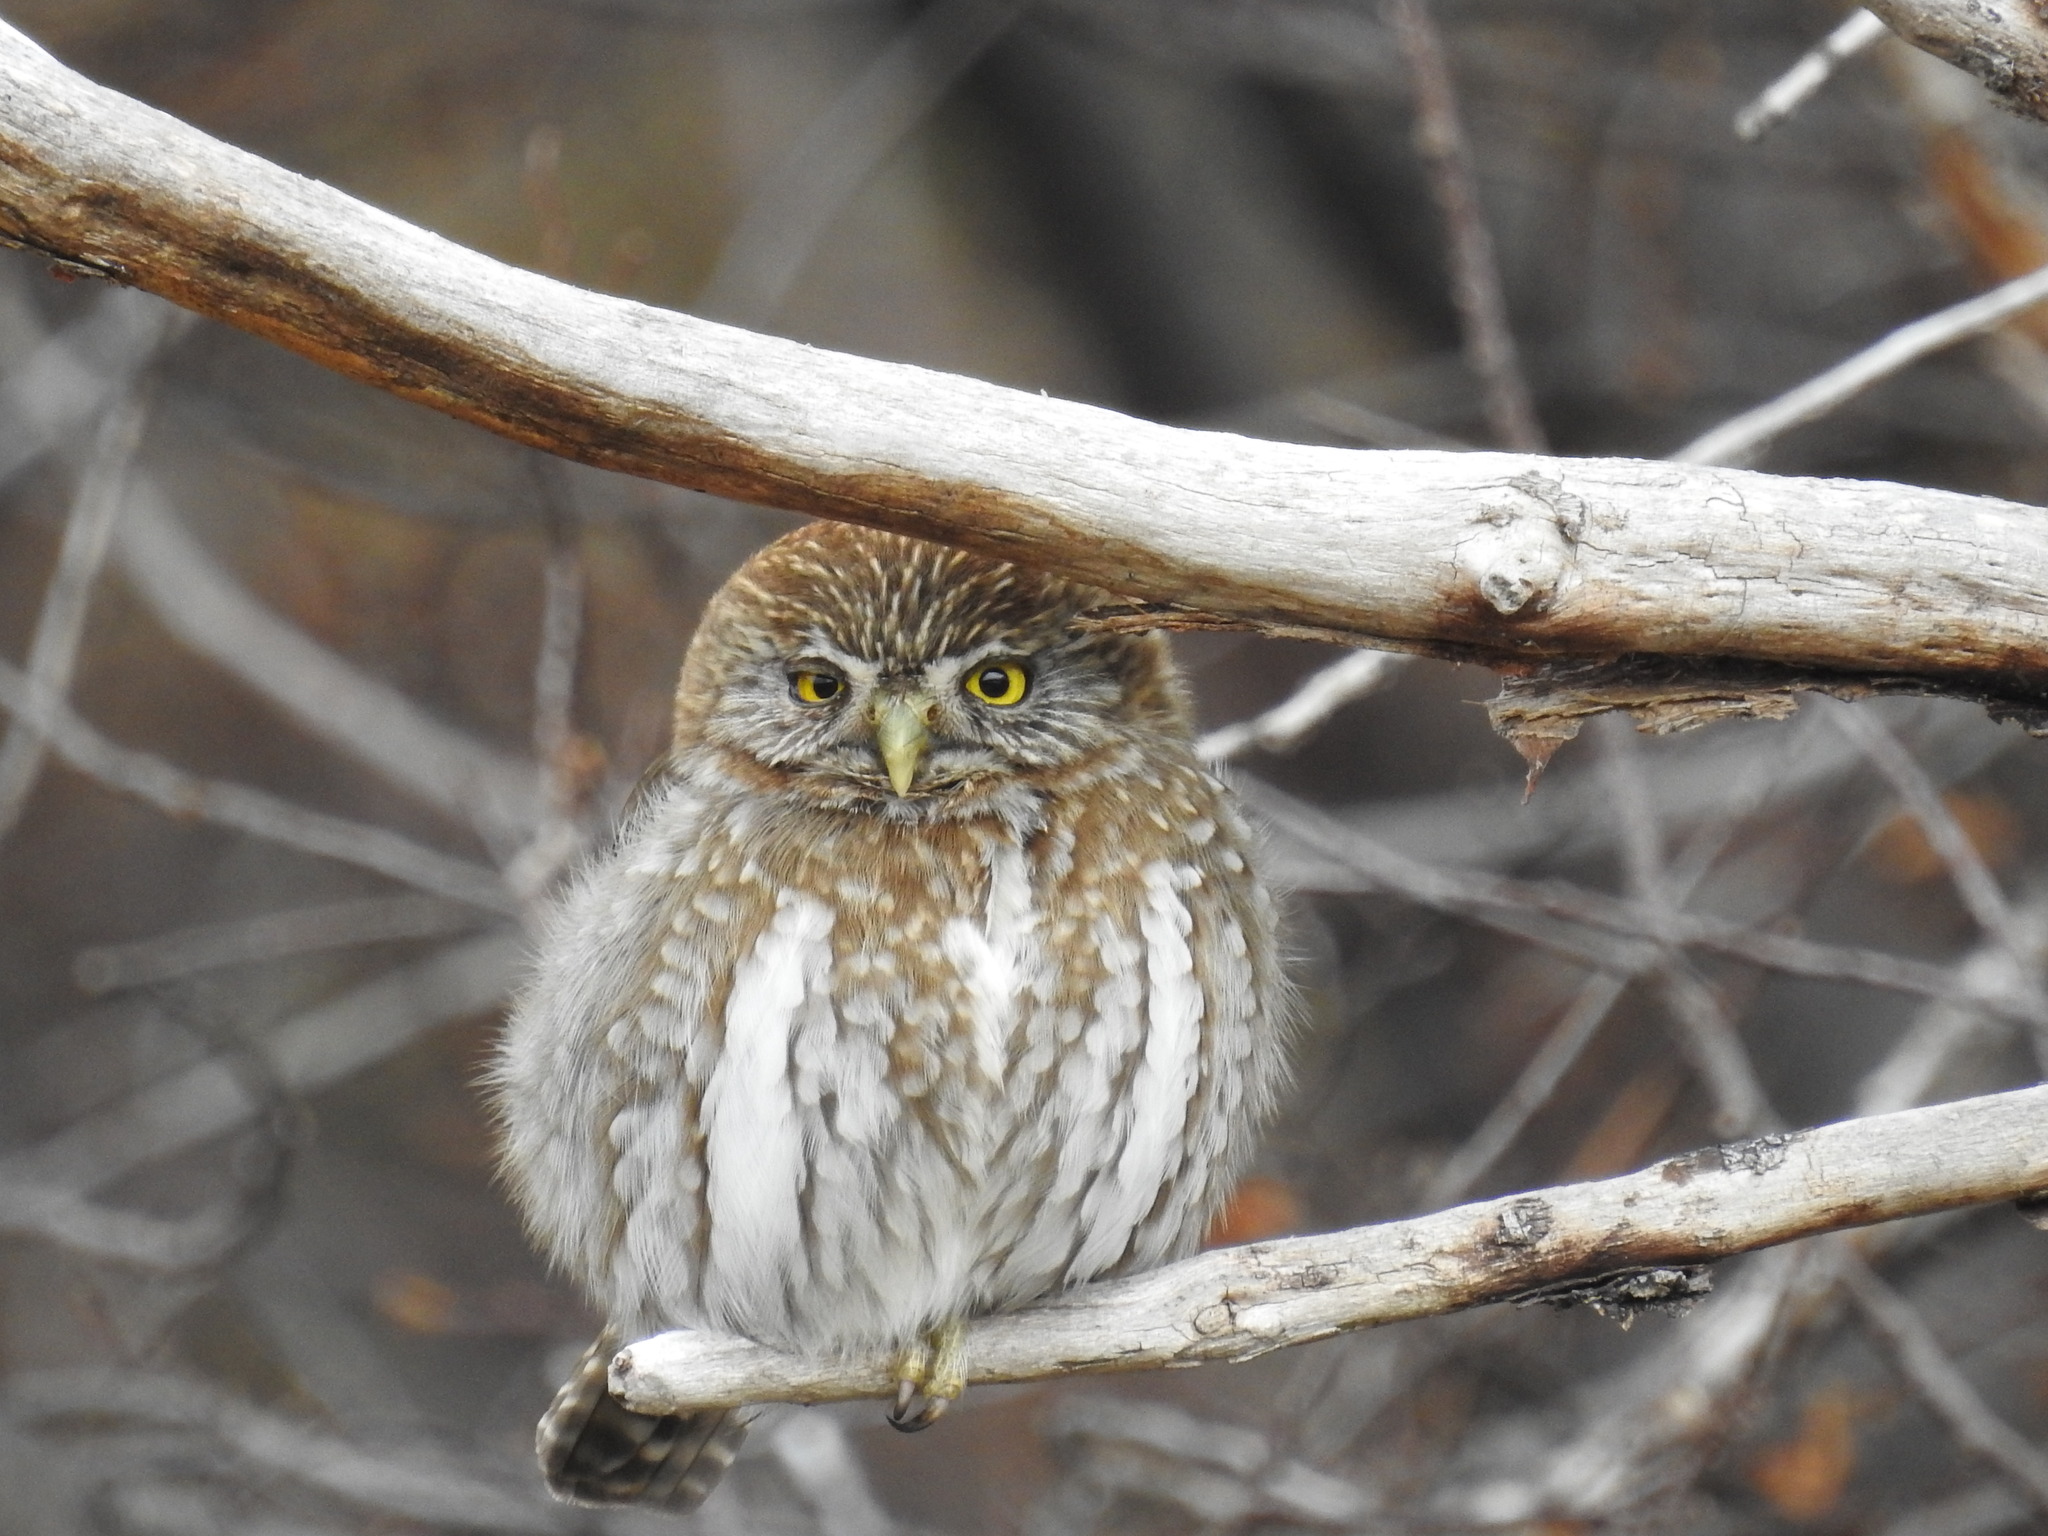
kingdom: Animalia
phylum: Chordata
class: Aves
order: Strigiformes
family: Strigidae
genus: Glaucidium
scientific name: Glaucidium nana
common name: Austral pygmy-owl
